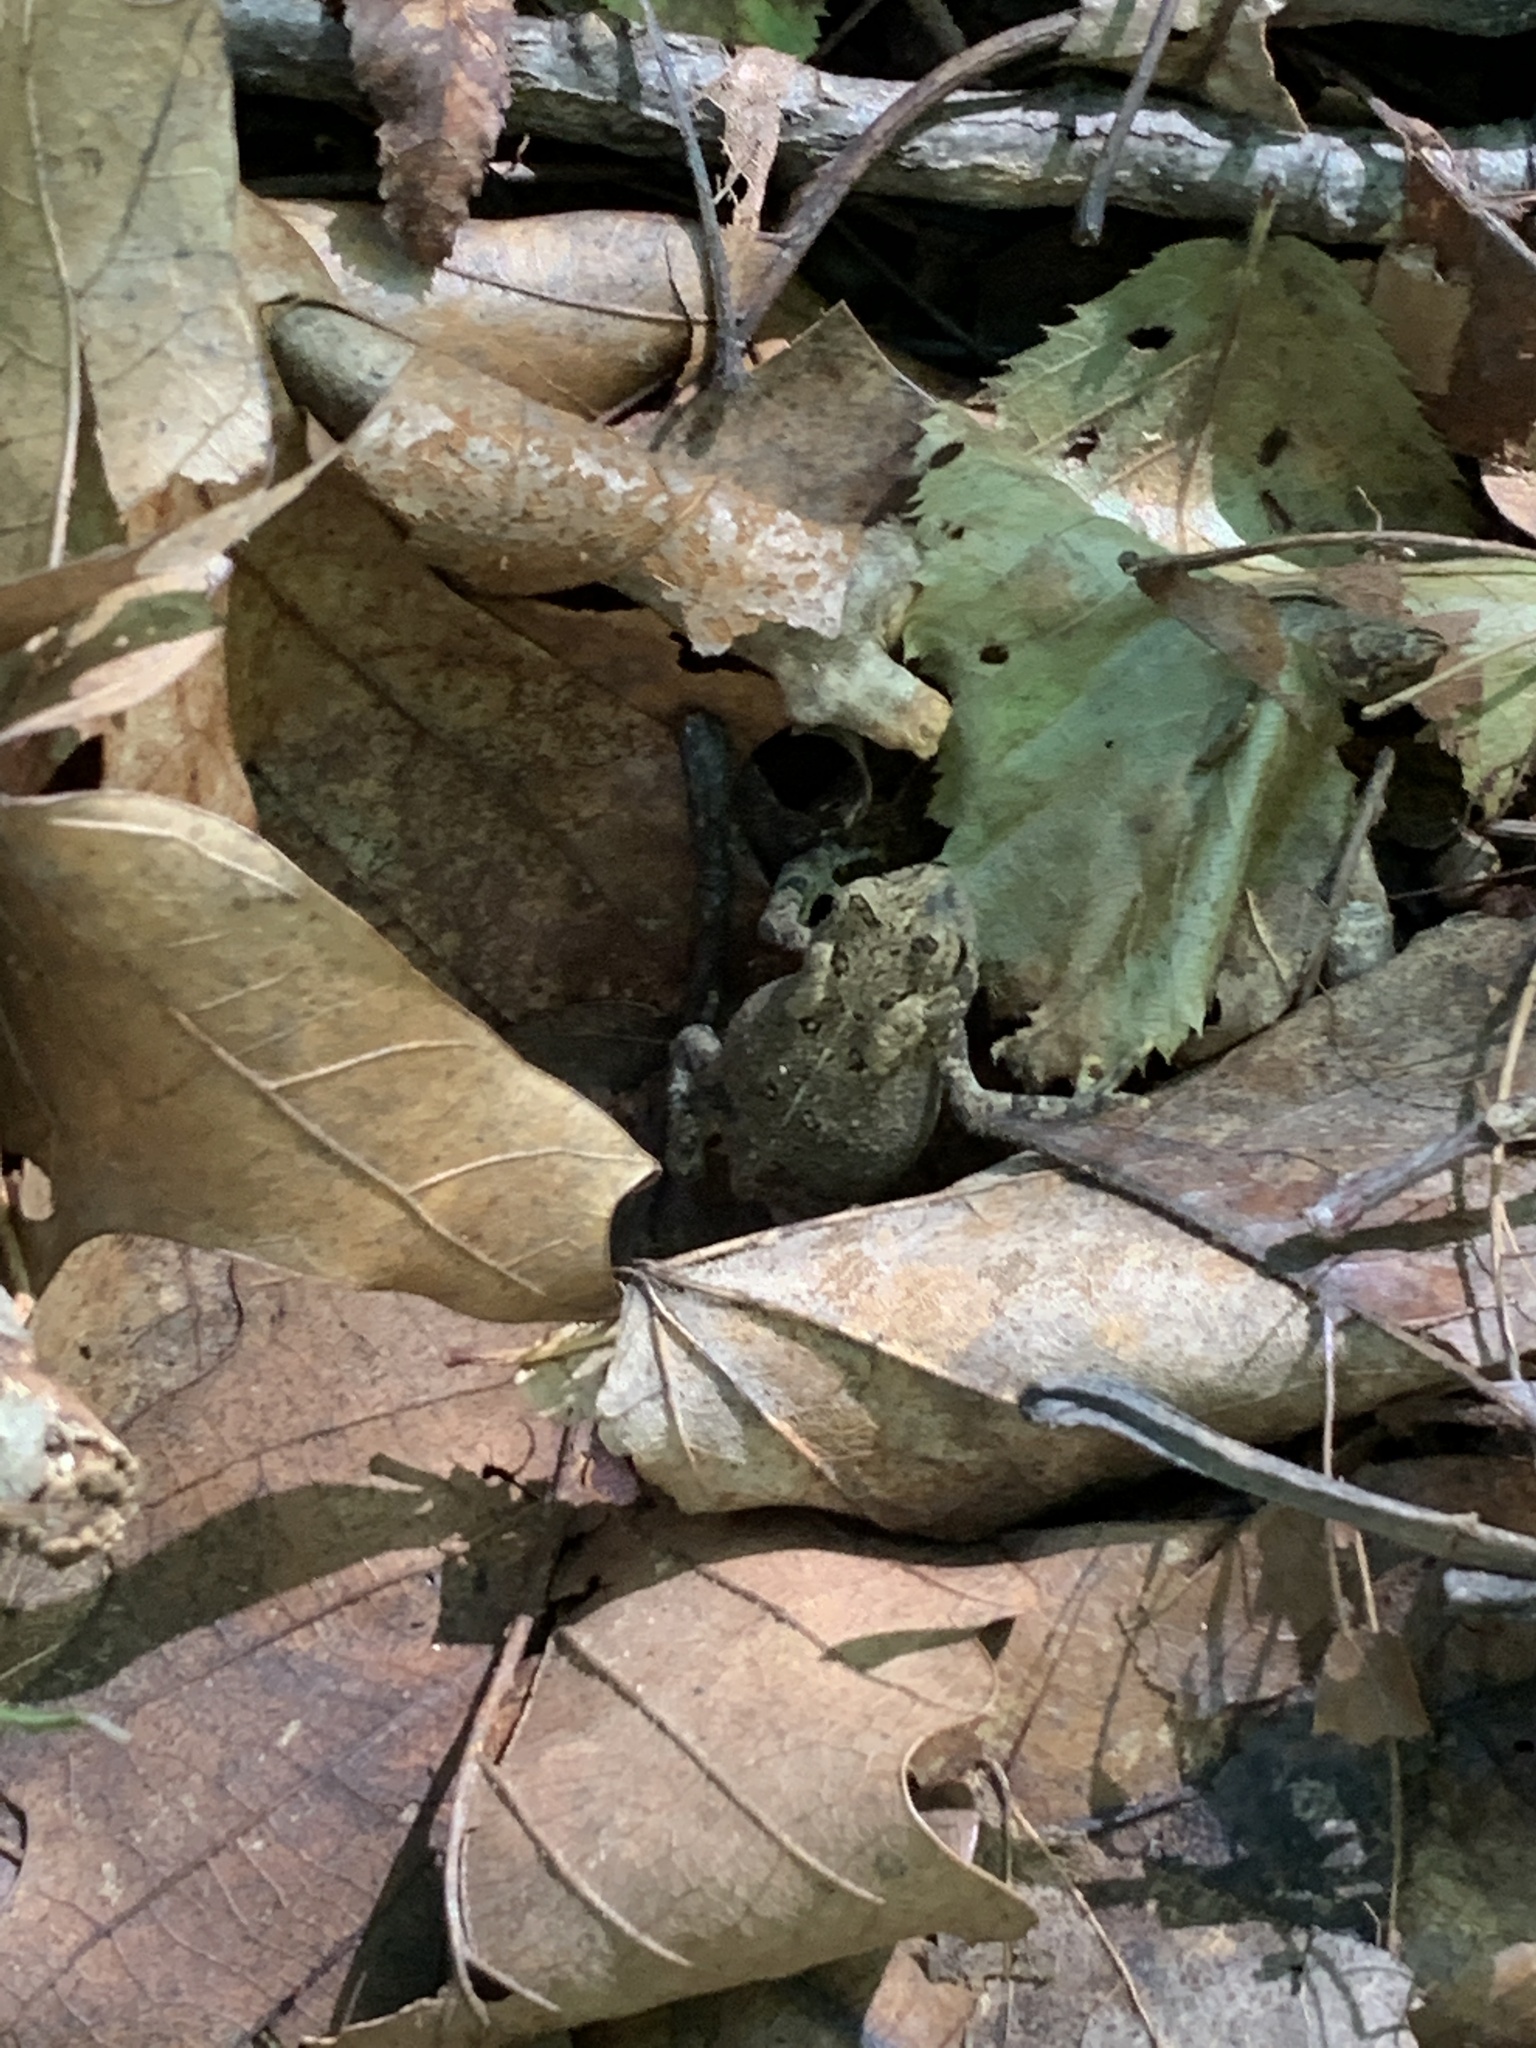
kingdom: Animalia
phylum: Chordata
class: Amphibia
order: Anura
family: Bufonidae
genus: Anaxyrus
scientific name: Anaxyrus americanus
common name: American toad
